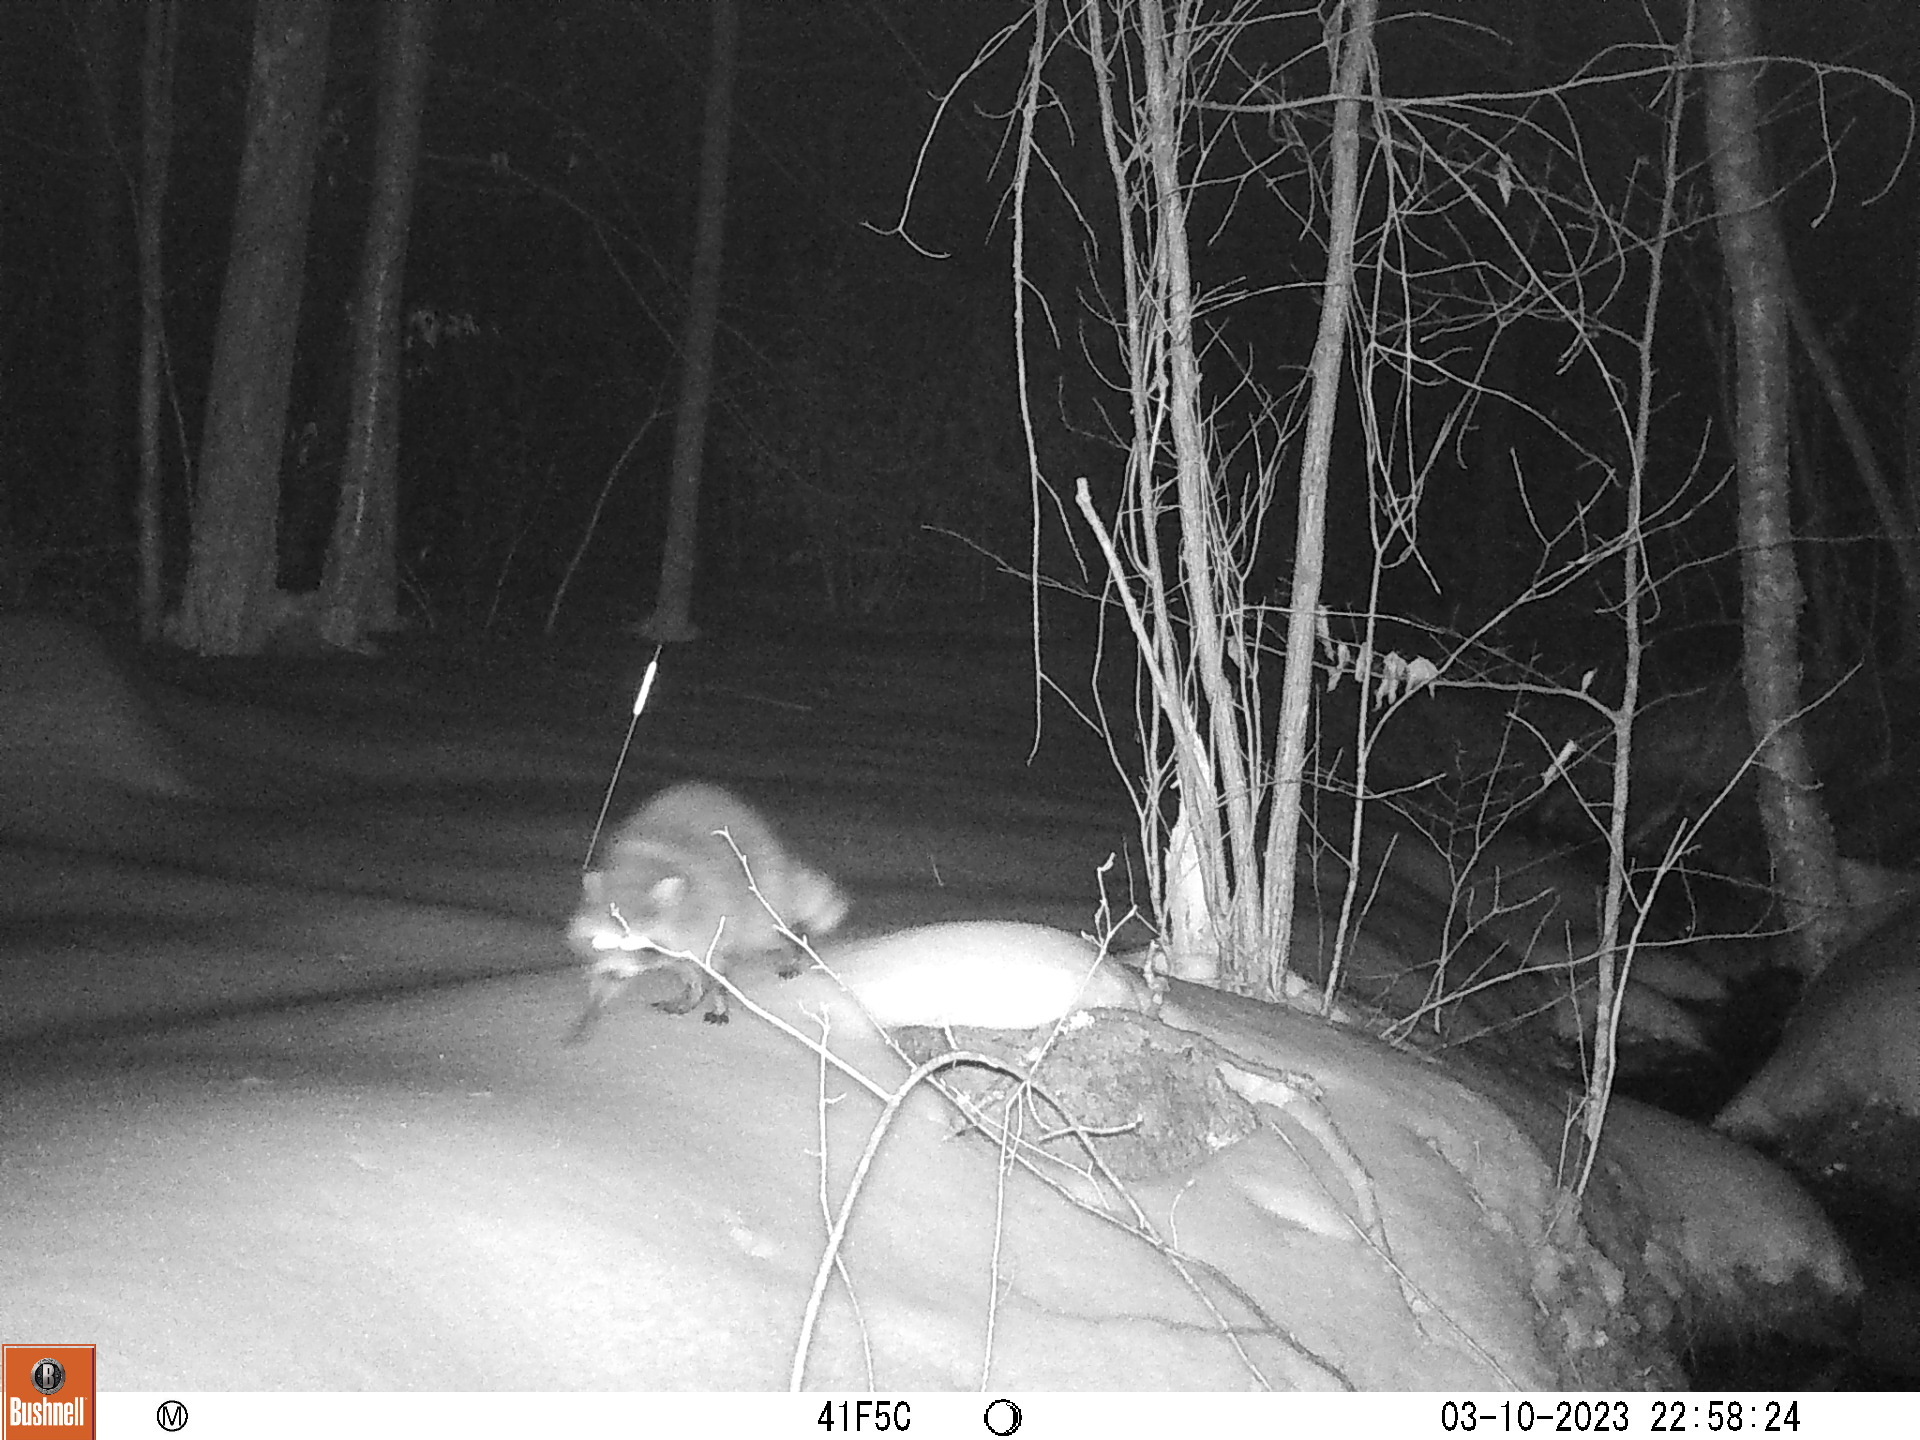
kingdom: Animalia
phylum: Chordata
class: Mammalia
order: Carnivora
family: Procyonidae
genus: Procyon
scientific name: Procyon lotor
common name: Raccoon
